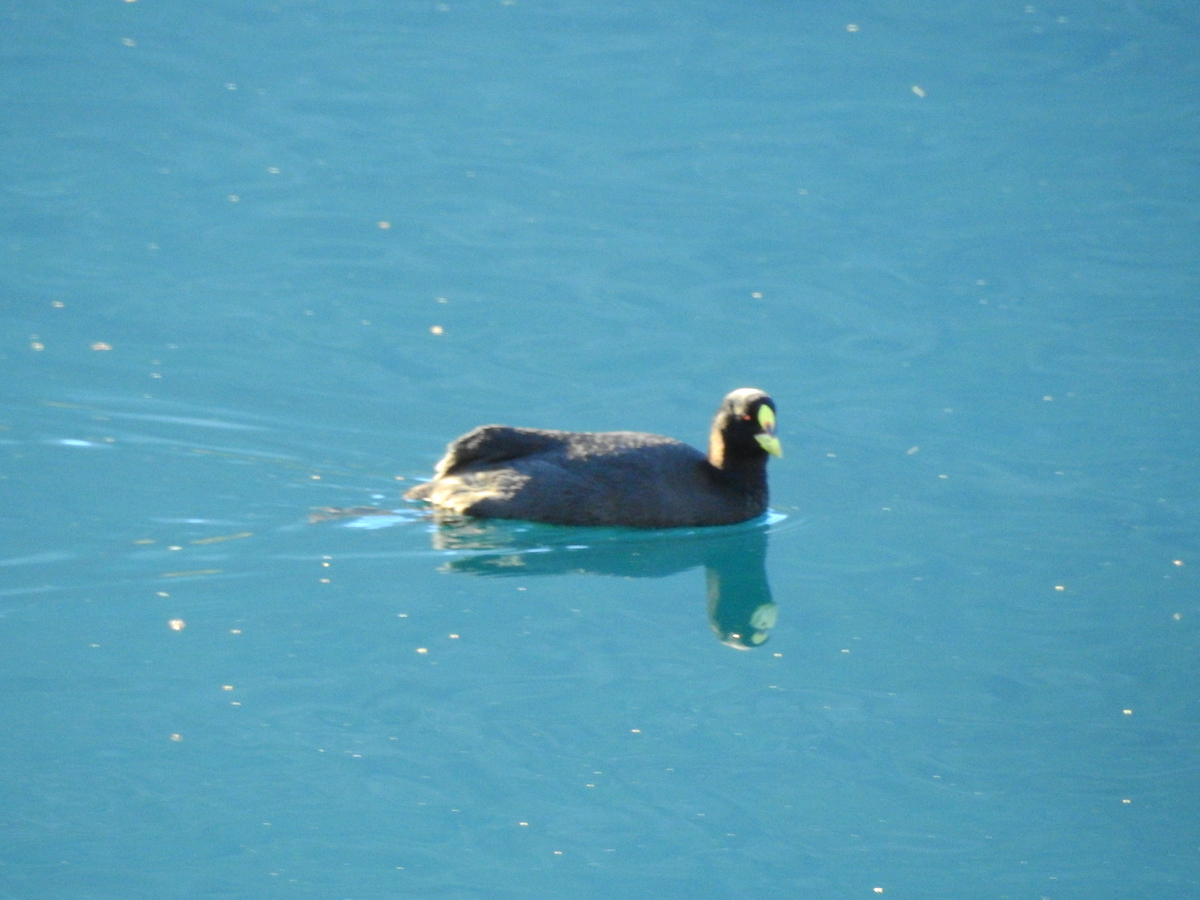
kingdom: Animalia
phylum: Chordata
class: Aves
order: Gruiformes
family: Rallidae
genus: Fulica
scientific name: Fulica armillata
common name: Red-gartered coot
